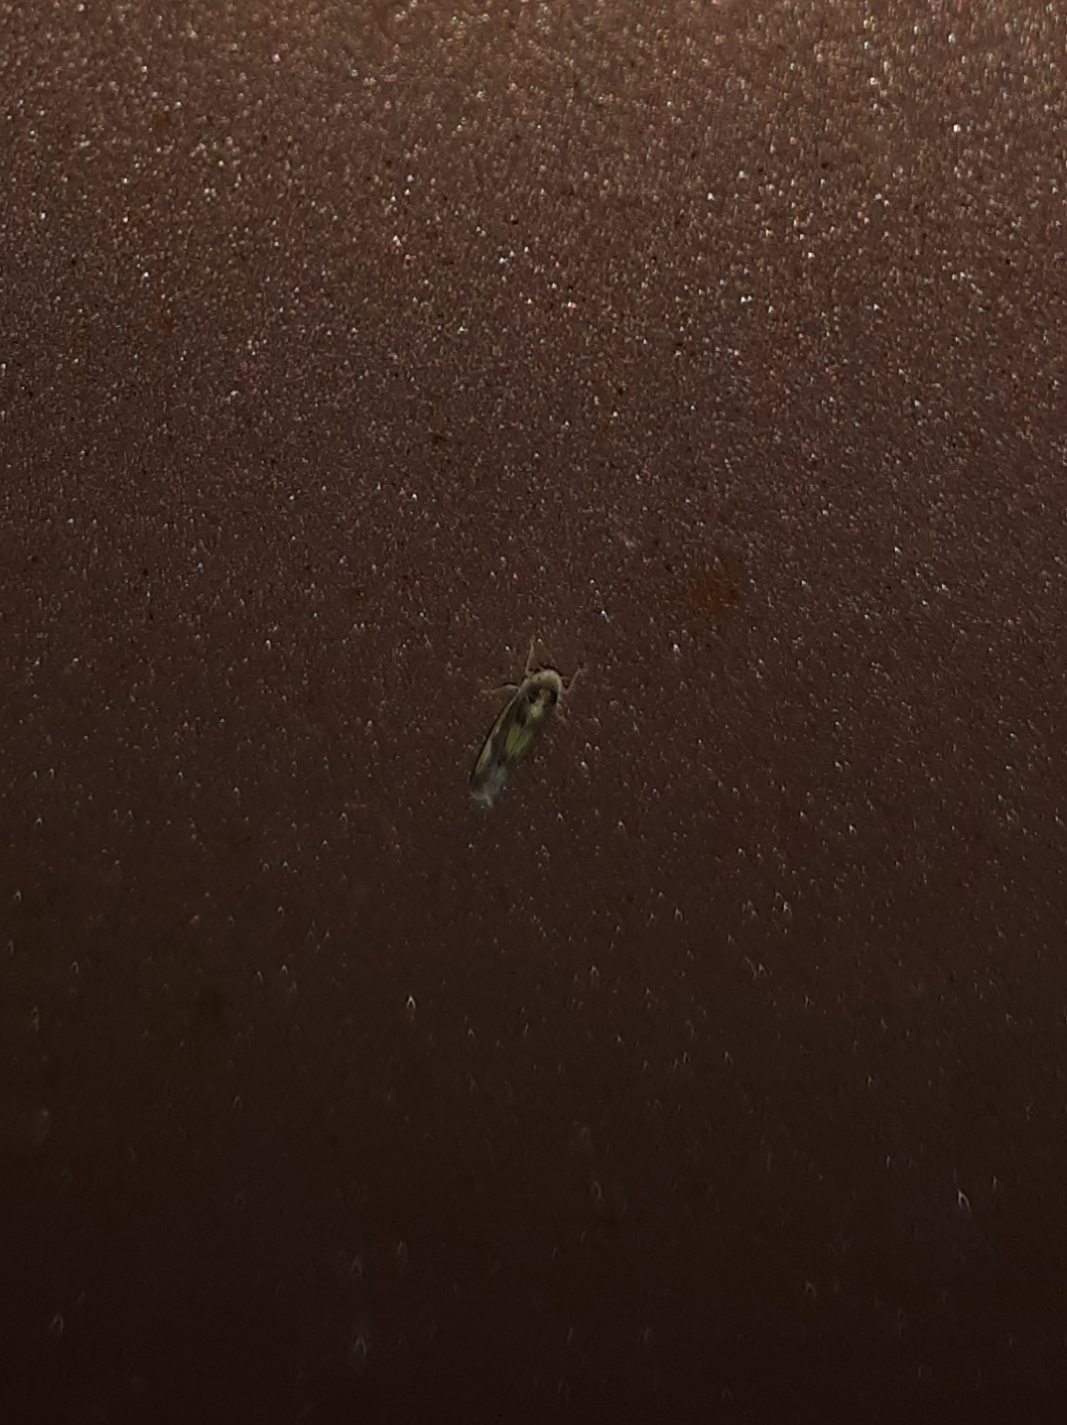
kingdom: Animalia
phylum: Arthropoda
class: Insecta
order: Hemiptera
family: Cicadellidae
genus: Eupteryx
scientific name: Eupteryx flavoscuta
